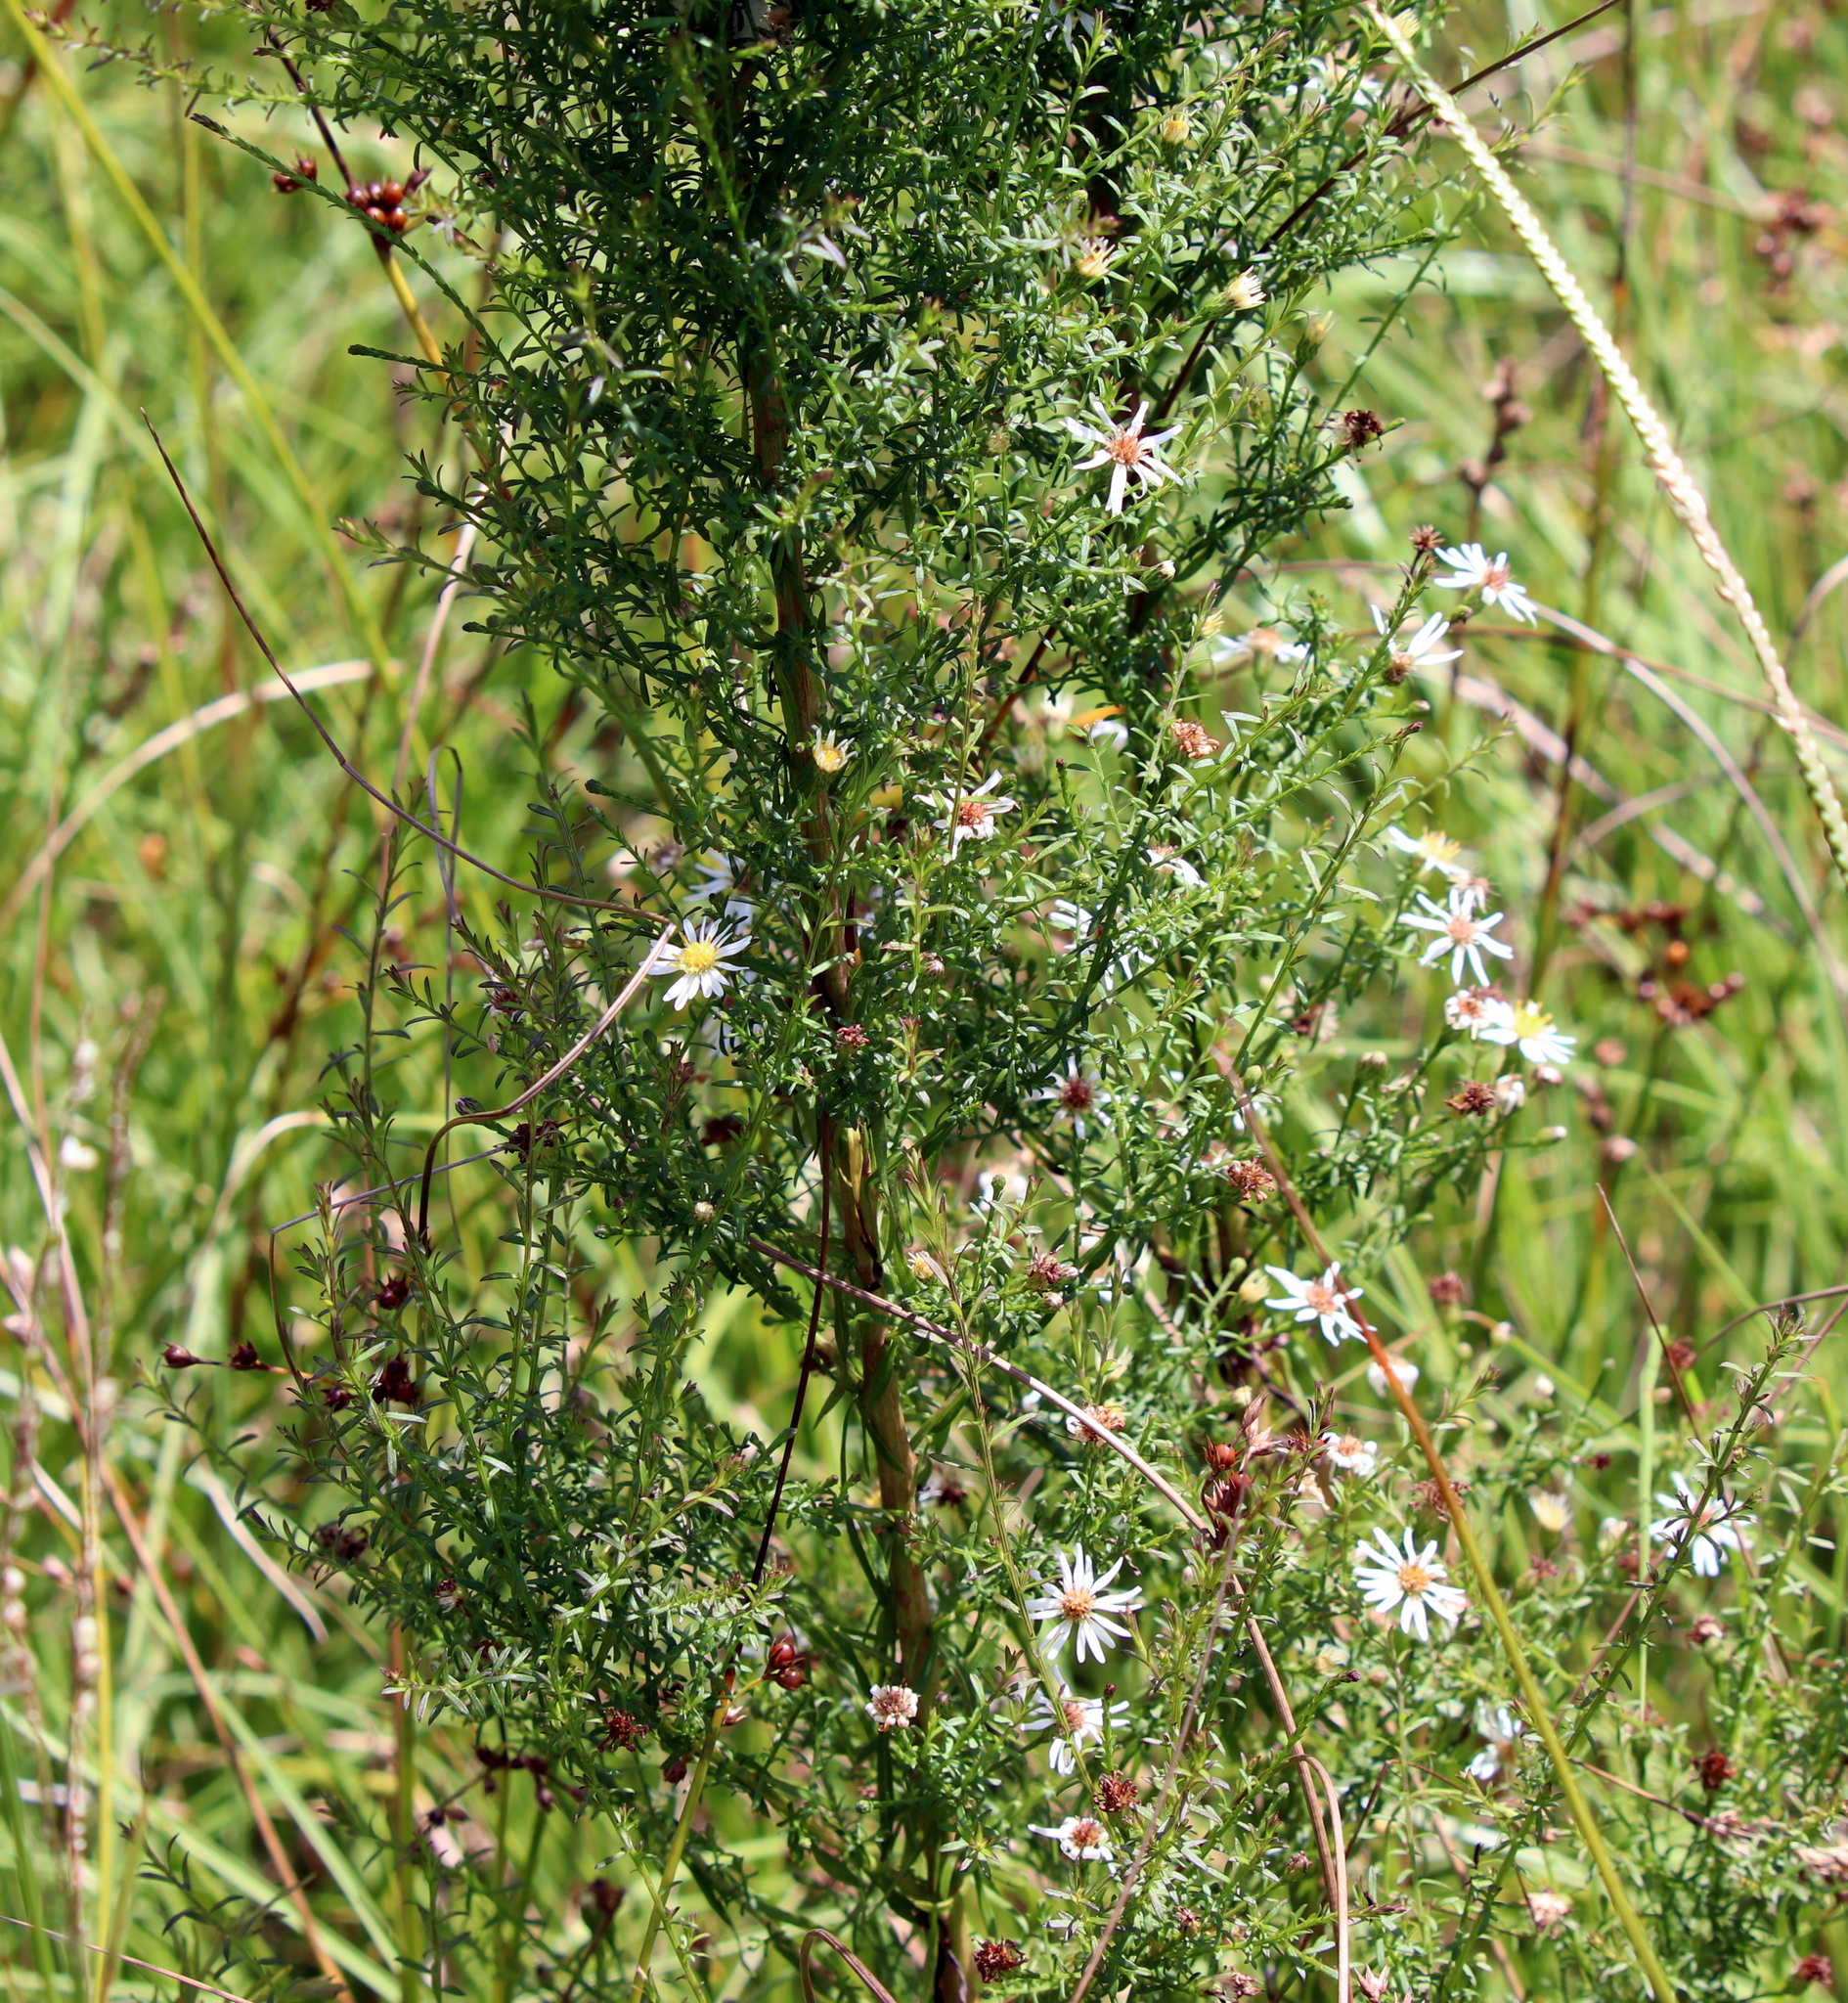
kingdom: Plantae
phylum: Tracheophyta
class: Magnoliopsida
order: Asterales
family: Asteraceae
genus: Symphyotrichum
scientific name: Symphyotrichum dumosum
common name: Bushy aster
